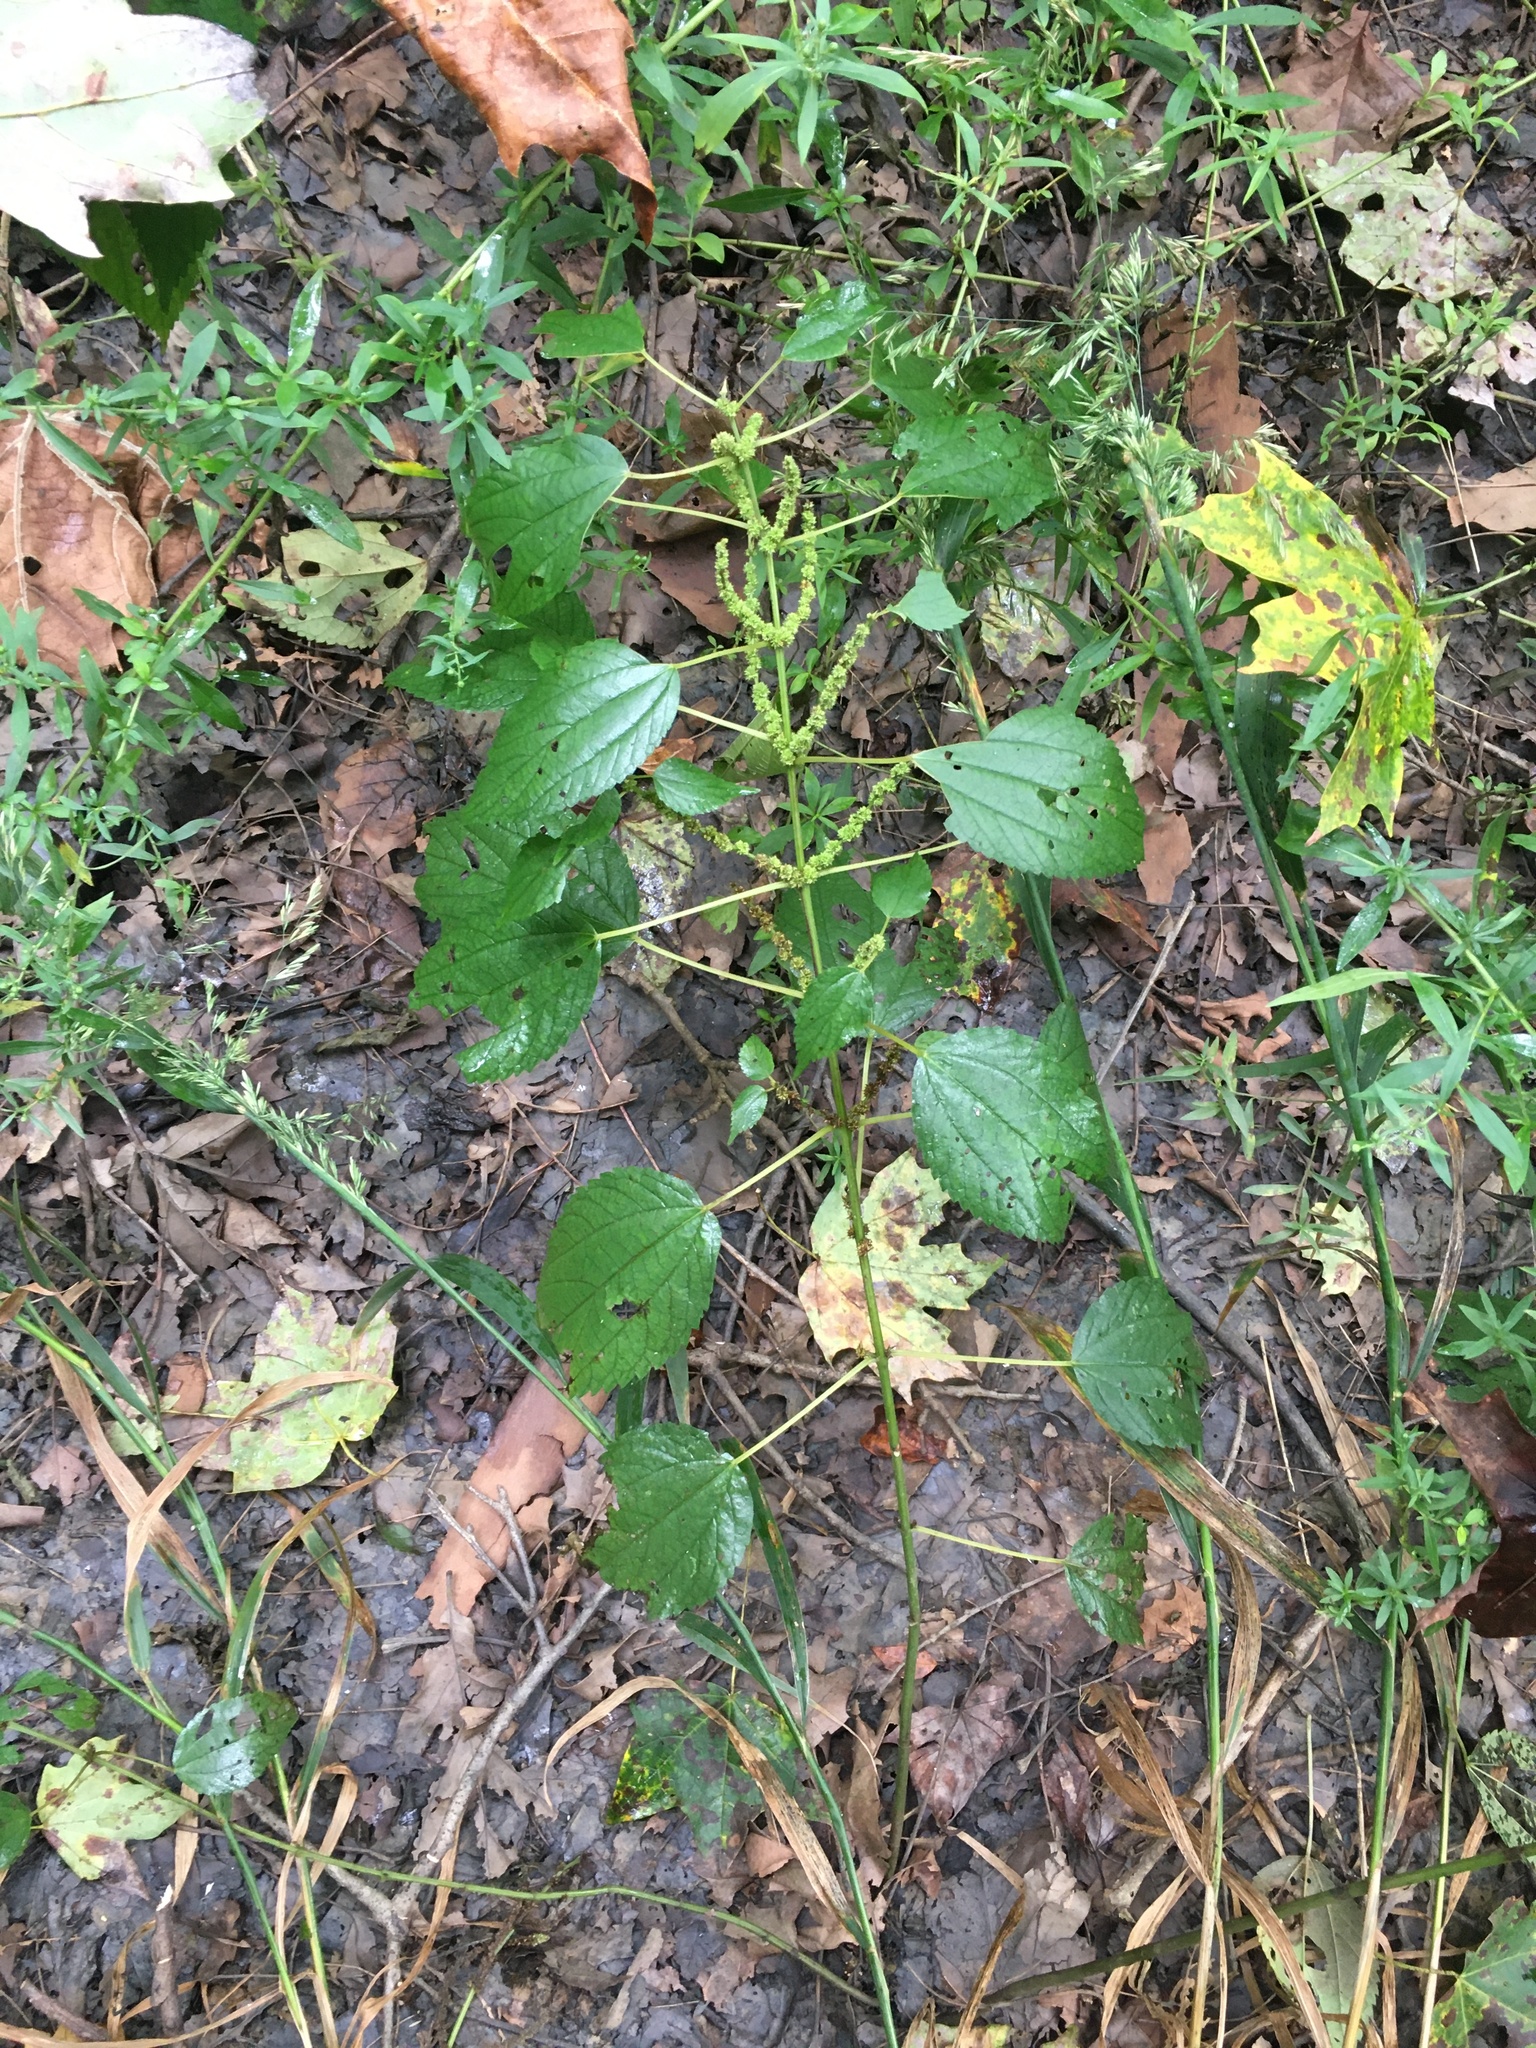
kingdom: Plantae
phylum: Tracheophyta
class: Magnoliopsida
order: Rosales
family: Urticaceae
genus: Boehmeria
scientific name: Boehmeria cylindrica
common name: Bog-hemp
